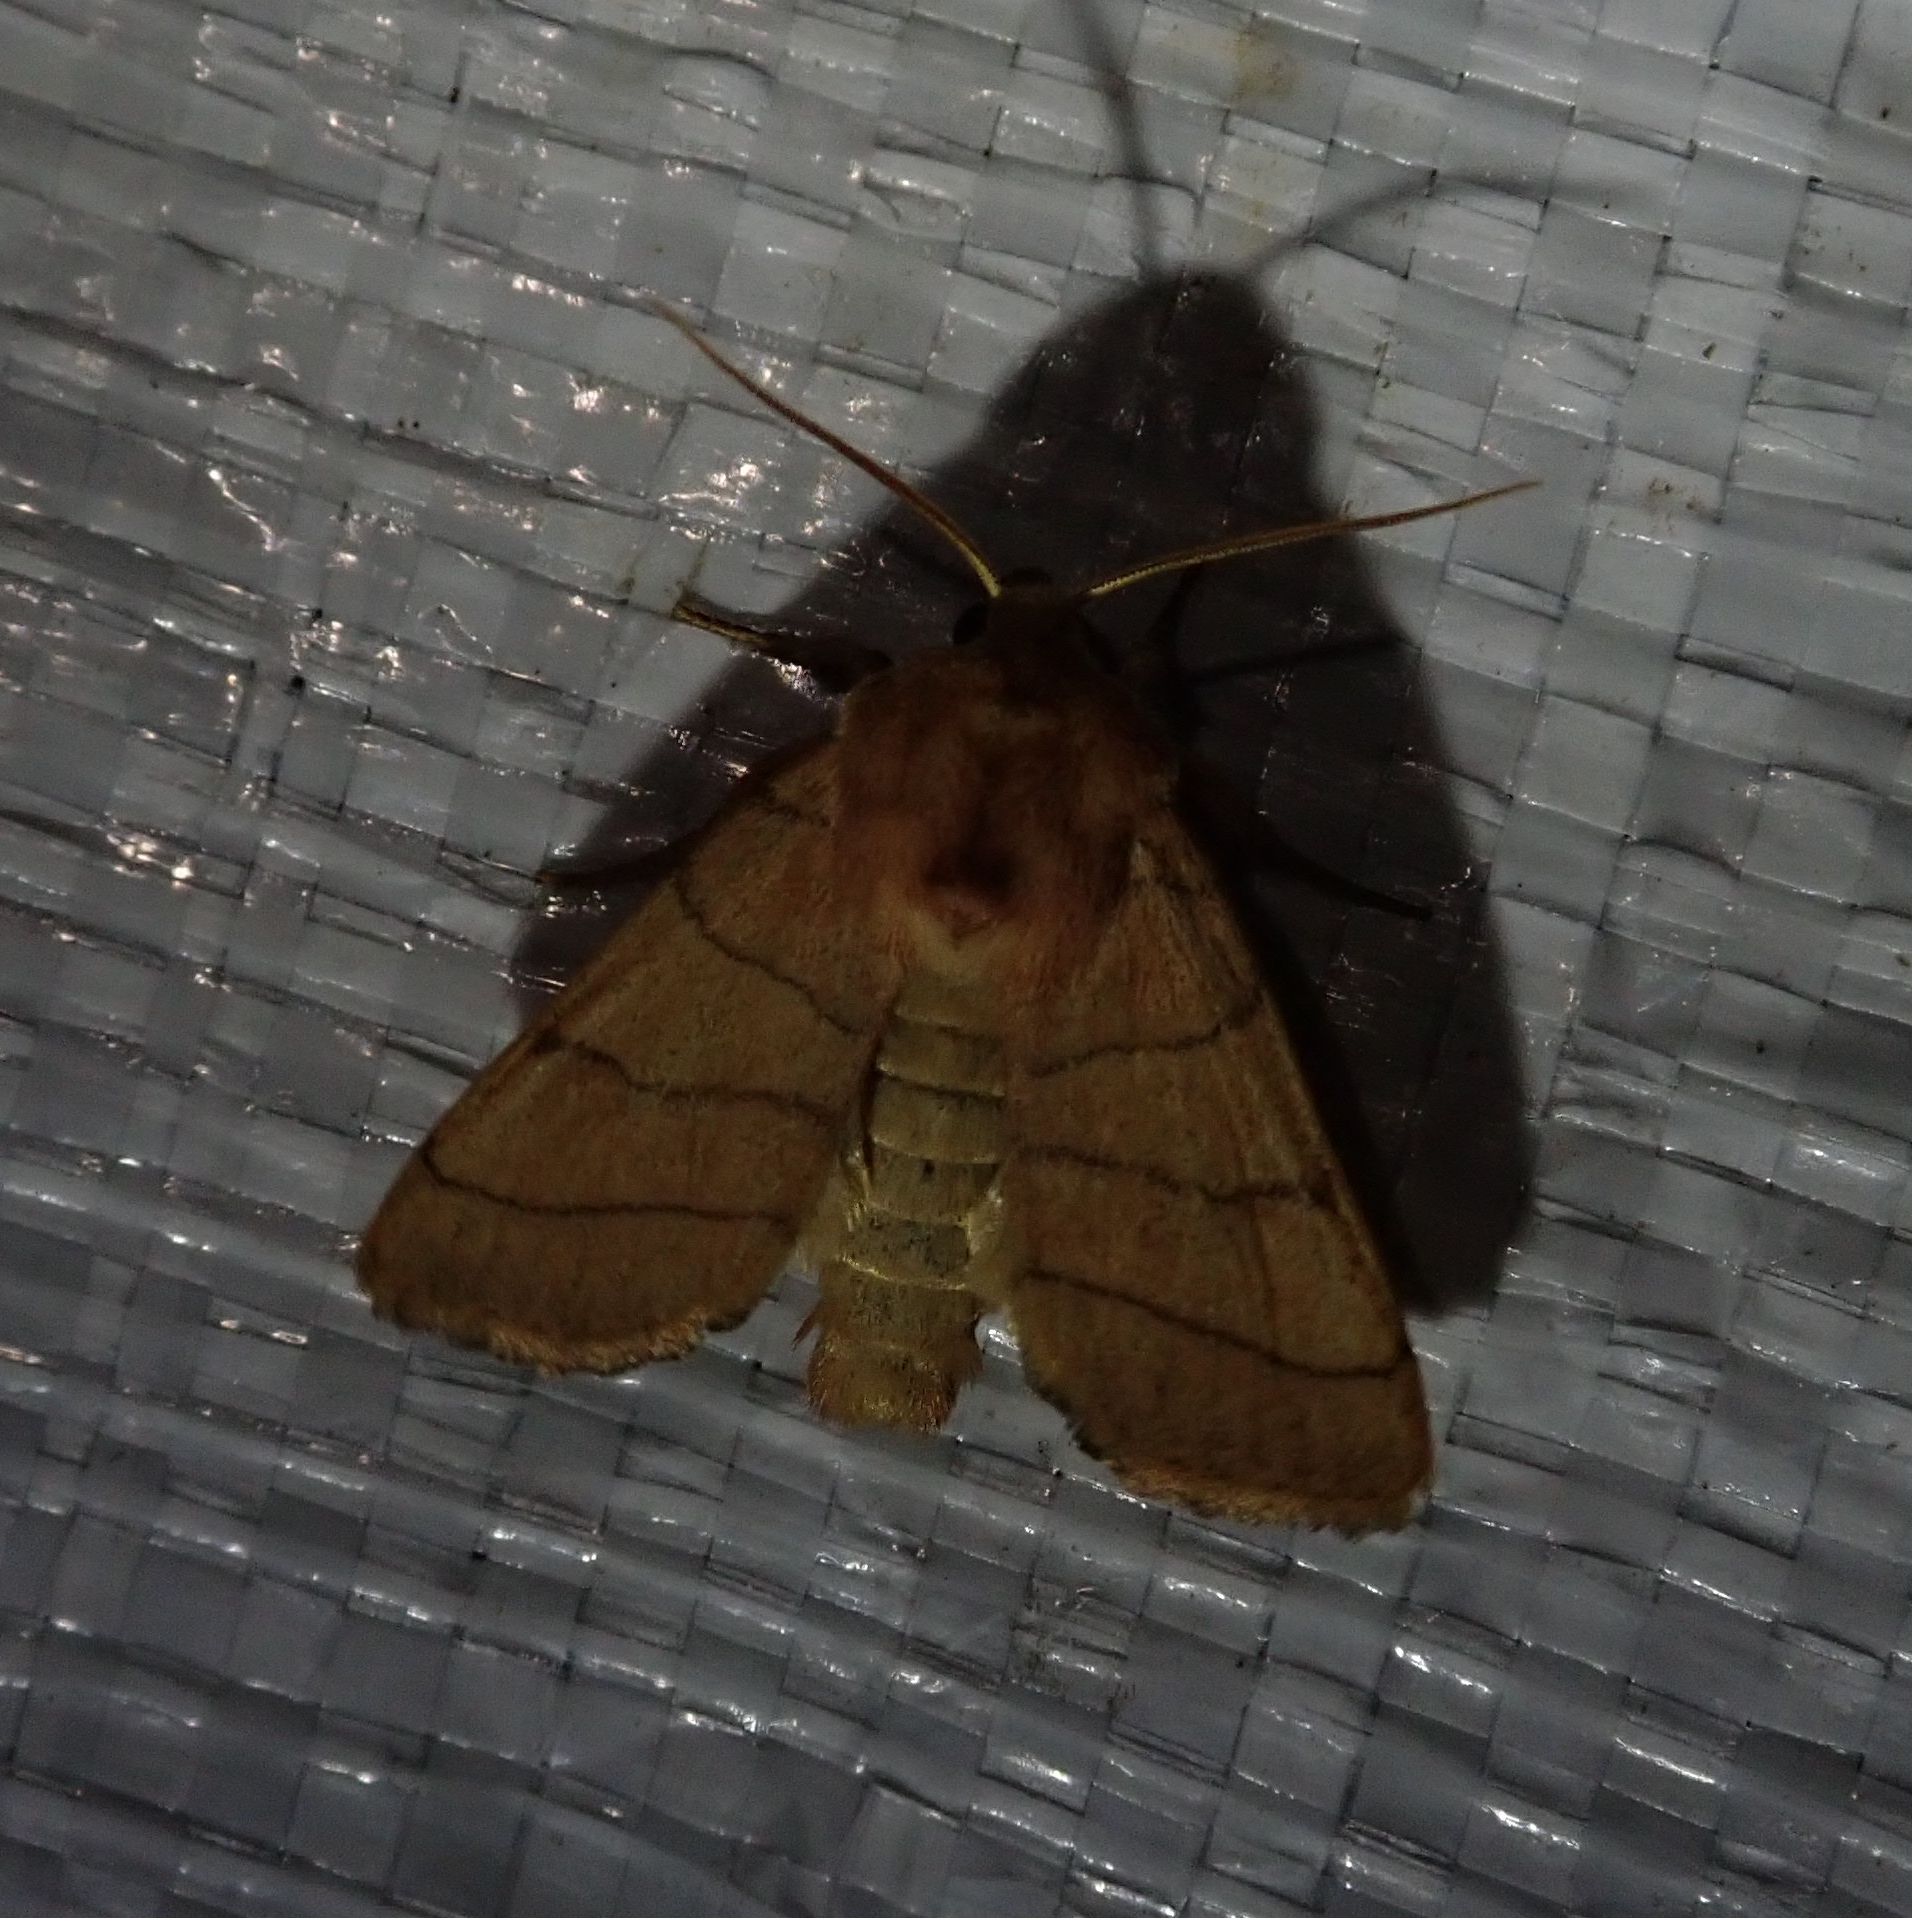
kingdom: Animalia
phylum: Arthropoda
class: Insecta
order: Lepidoptera
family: Noctuidae
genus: Charanyca
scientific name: Charanyca trigrammica
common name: Treble lines
